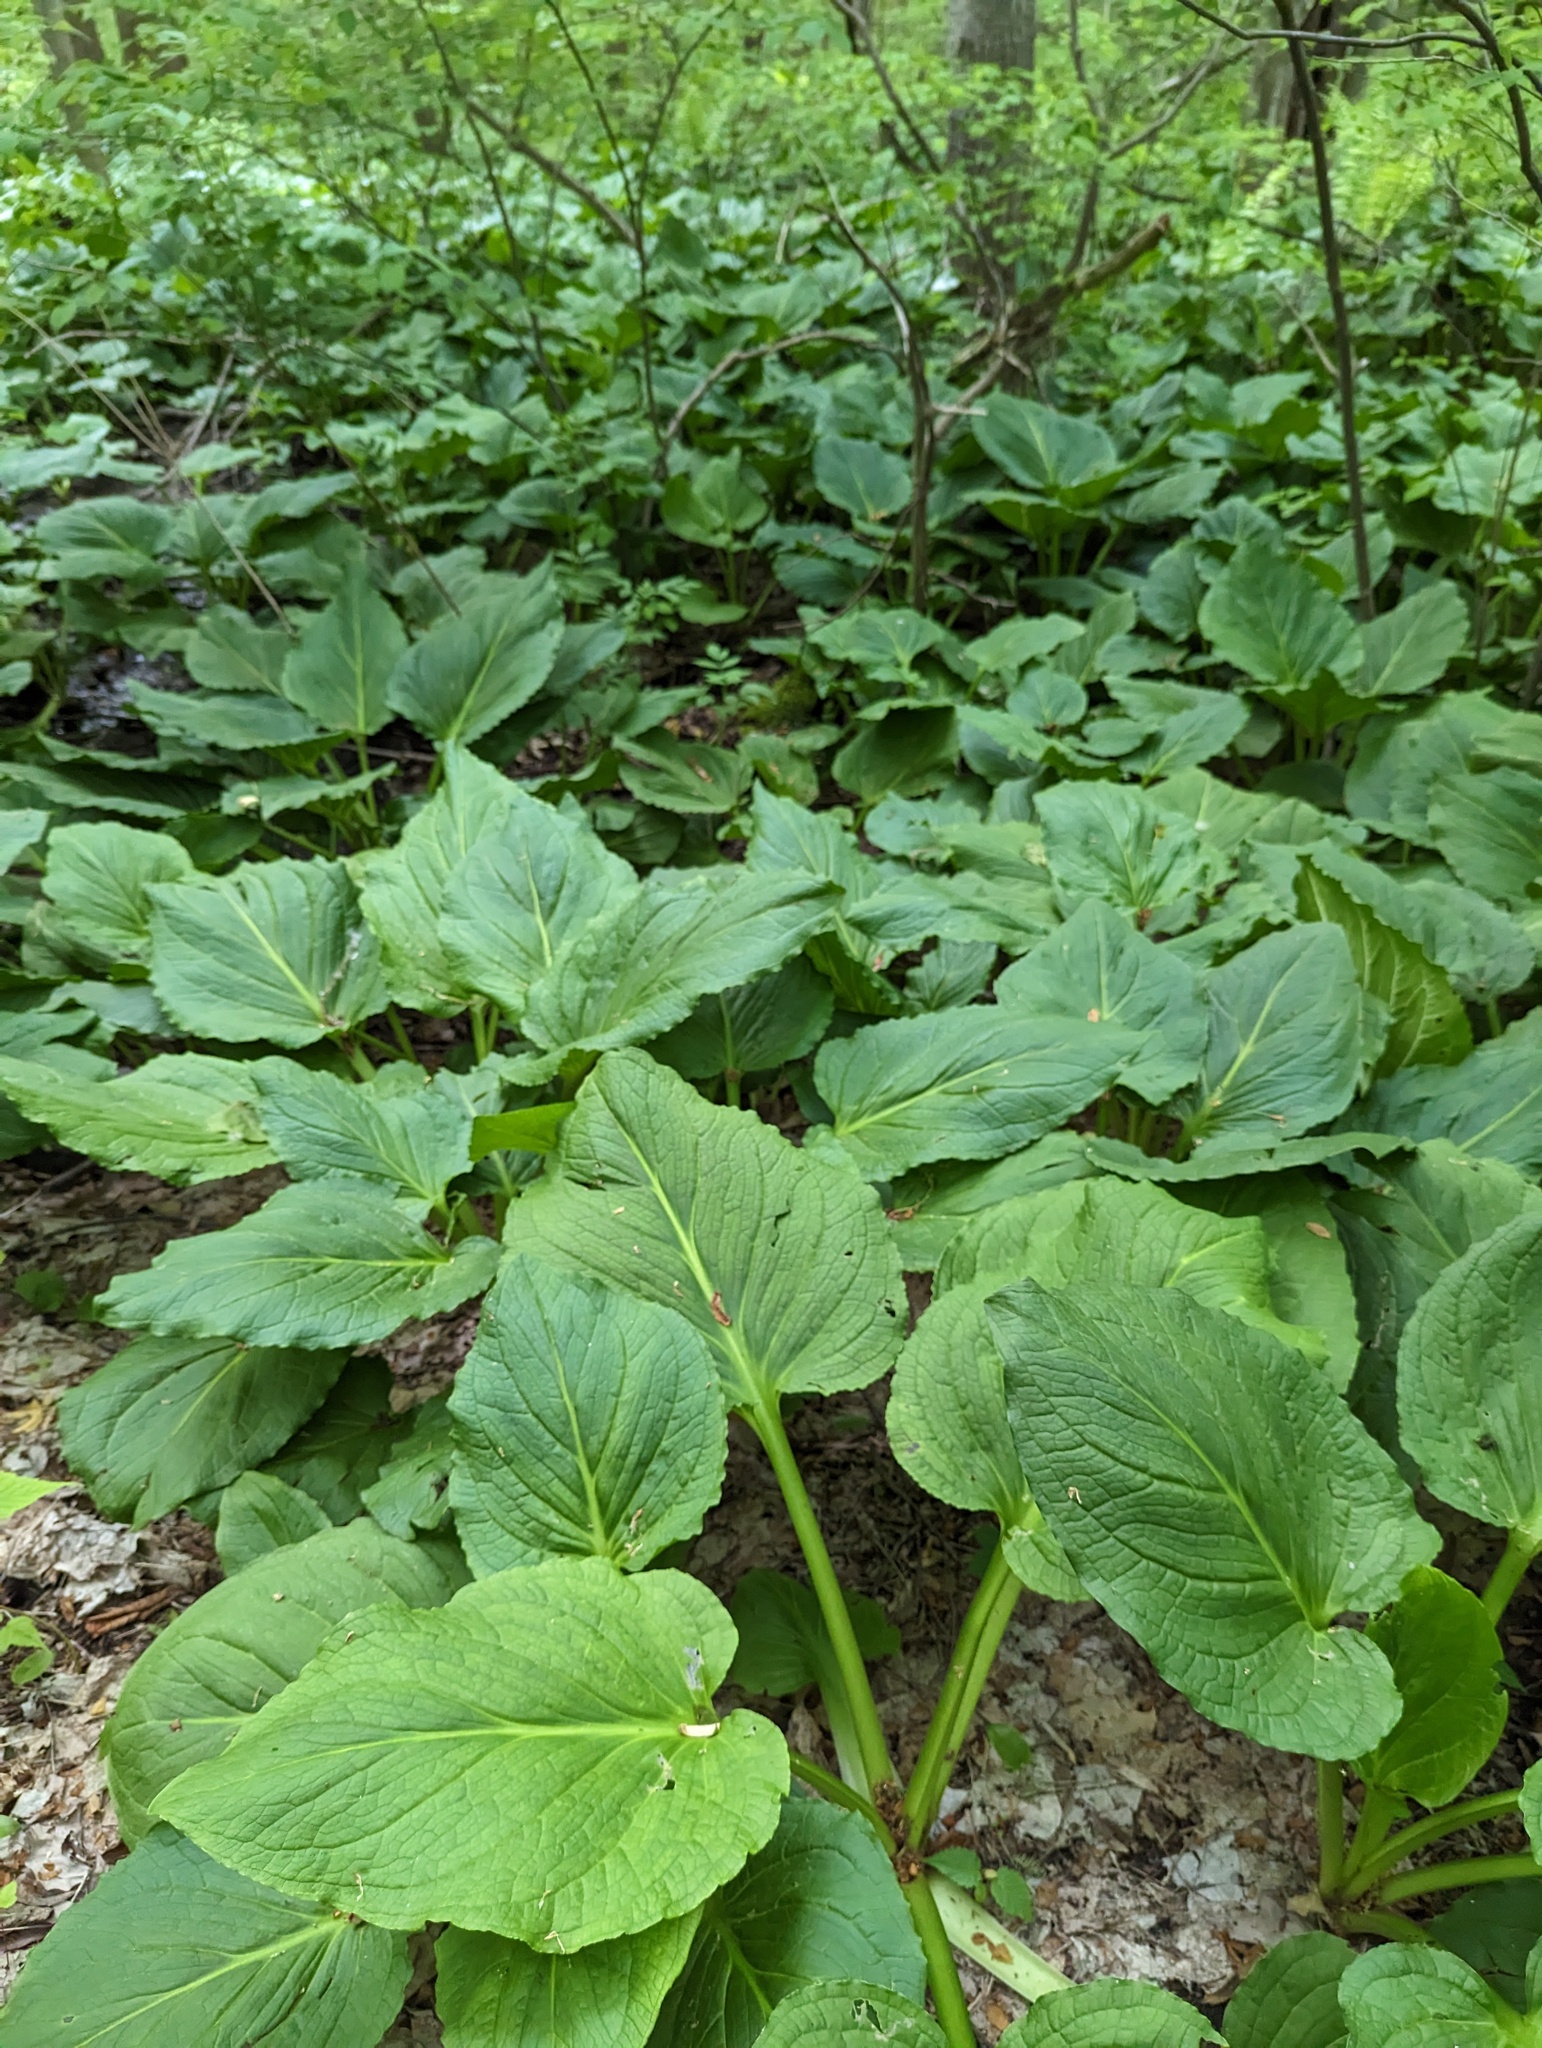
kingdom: Plantae
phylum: Tracheophyta
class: Liliopsida
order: Alismatales
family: Araceae
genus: Symplocarpus
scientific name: Symplocarpus foetidus
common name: Eastern skunk cabbage
